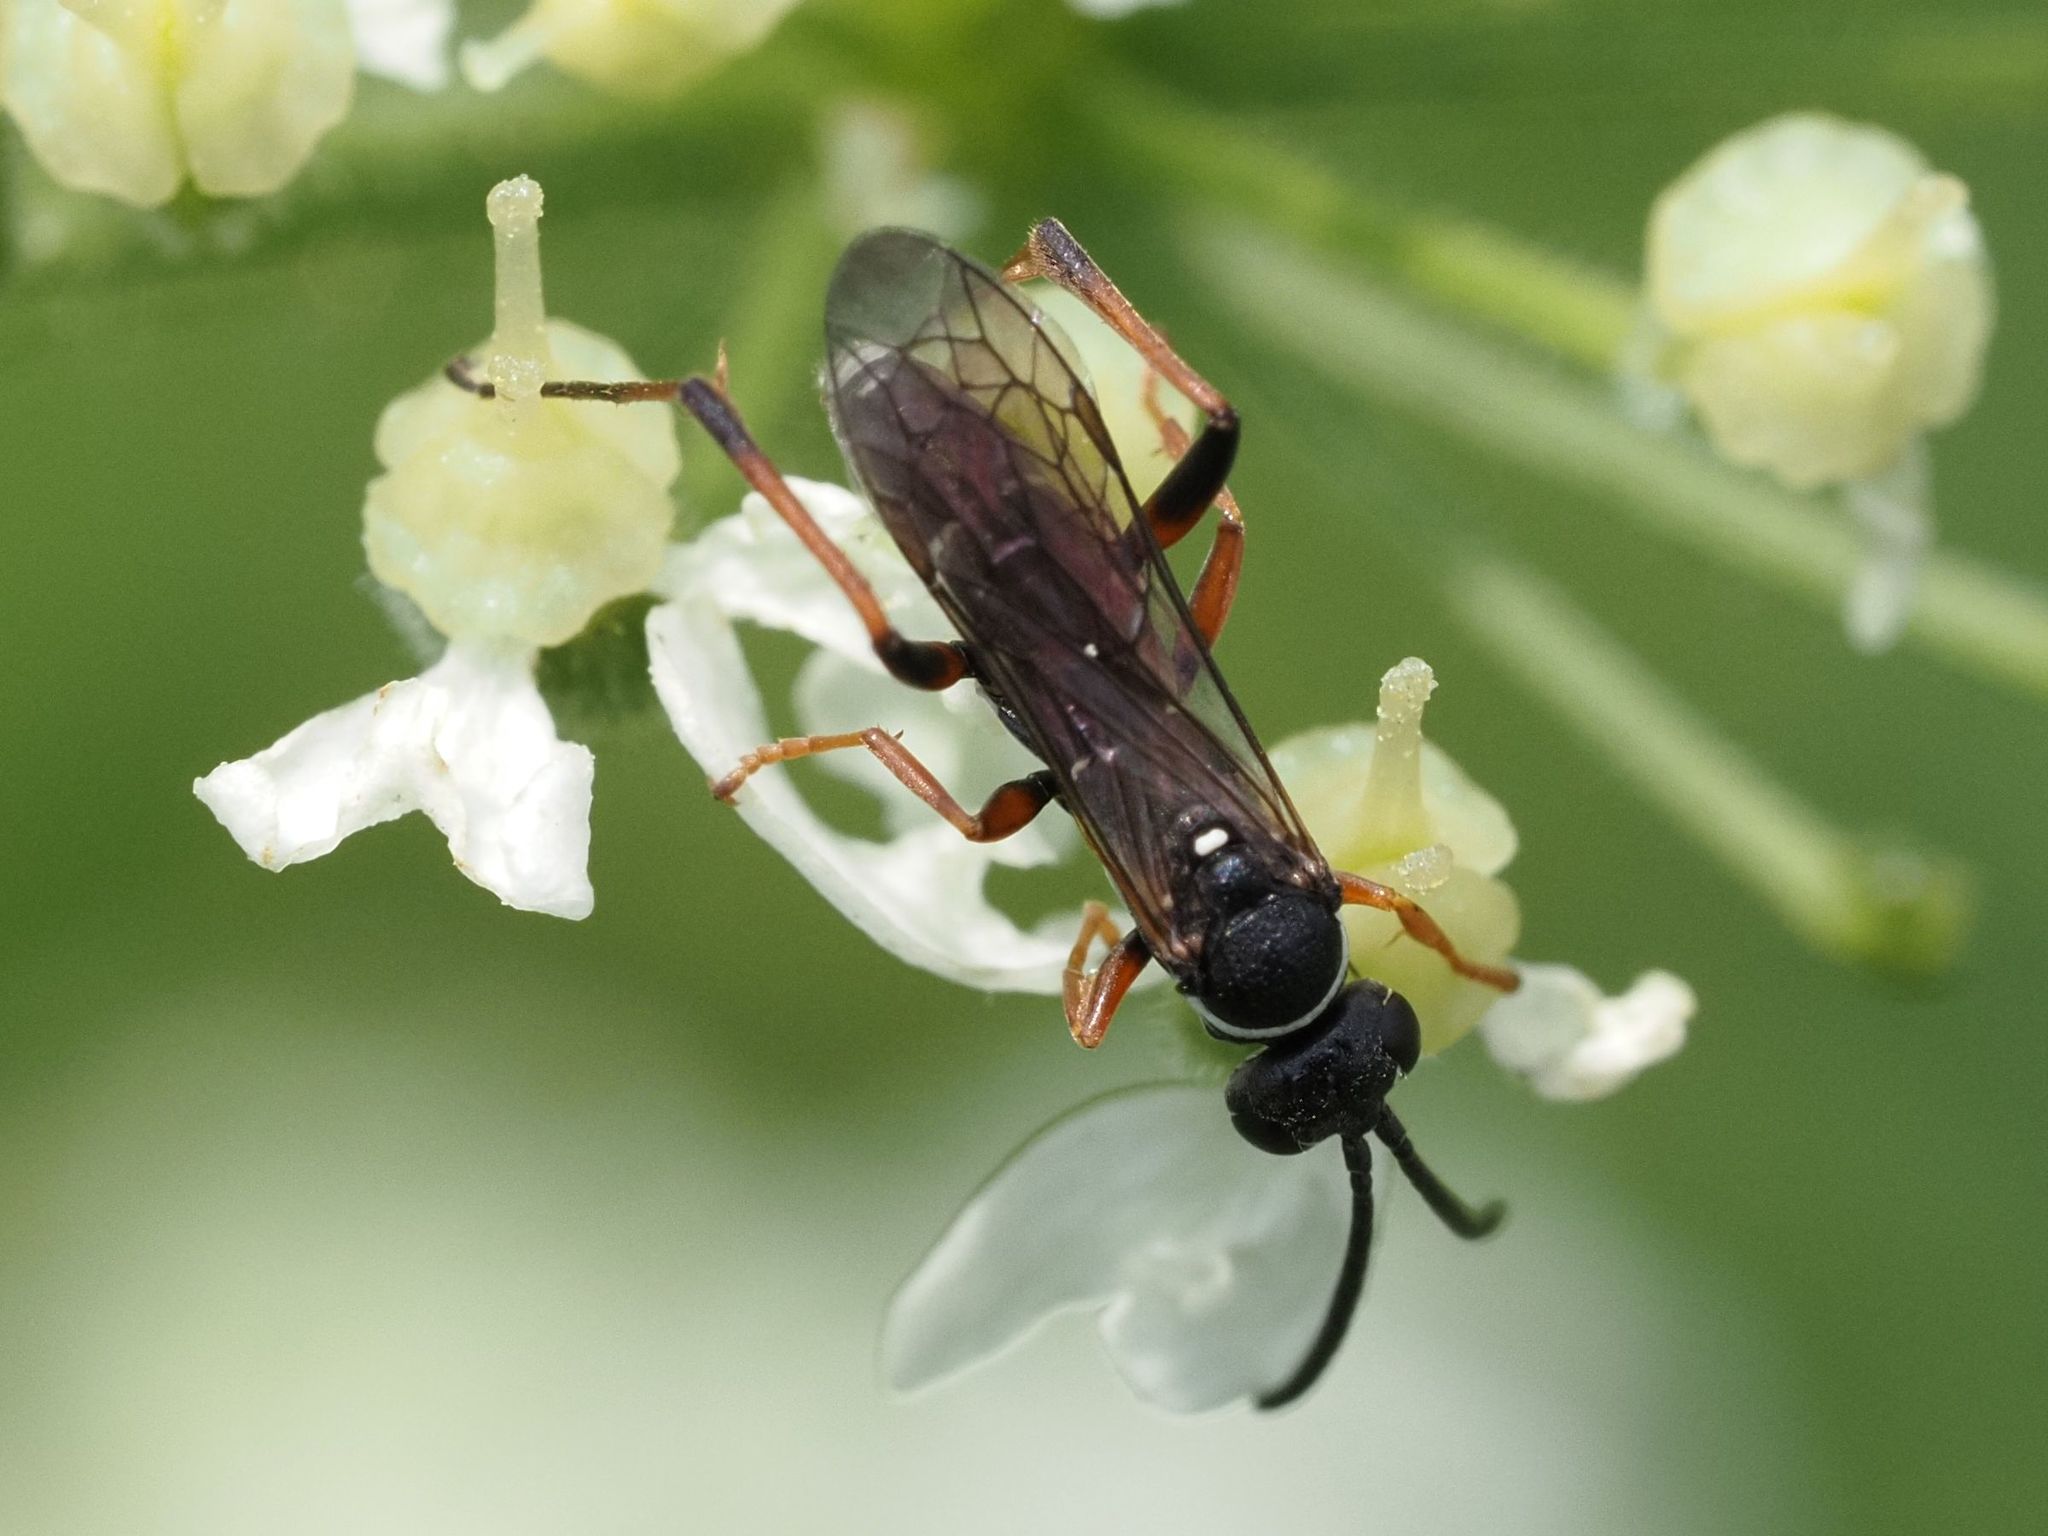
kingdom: Animalia
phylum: Arthropoda
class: Insecta
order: Hymenoptera
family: Pompilidae
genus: Ceropales
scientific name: Ceropales maculata
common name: Spider wasp
